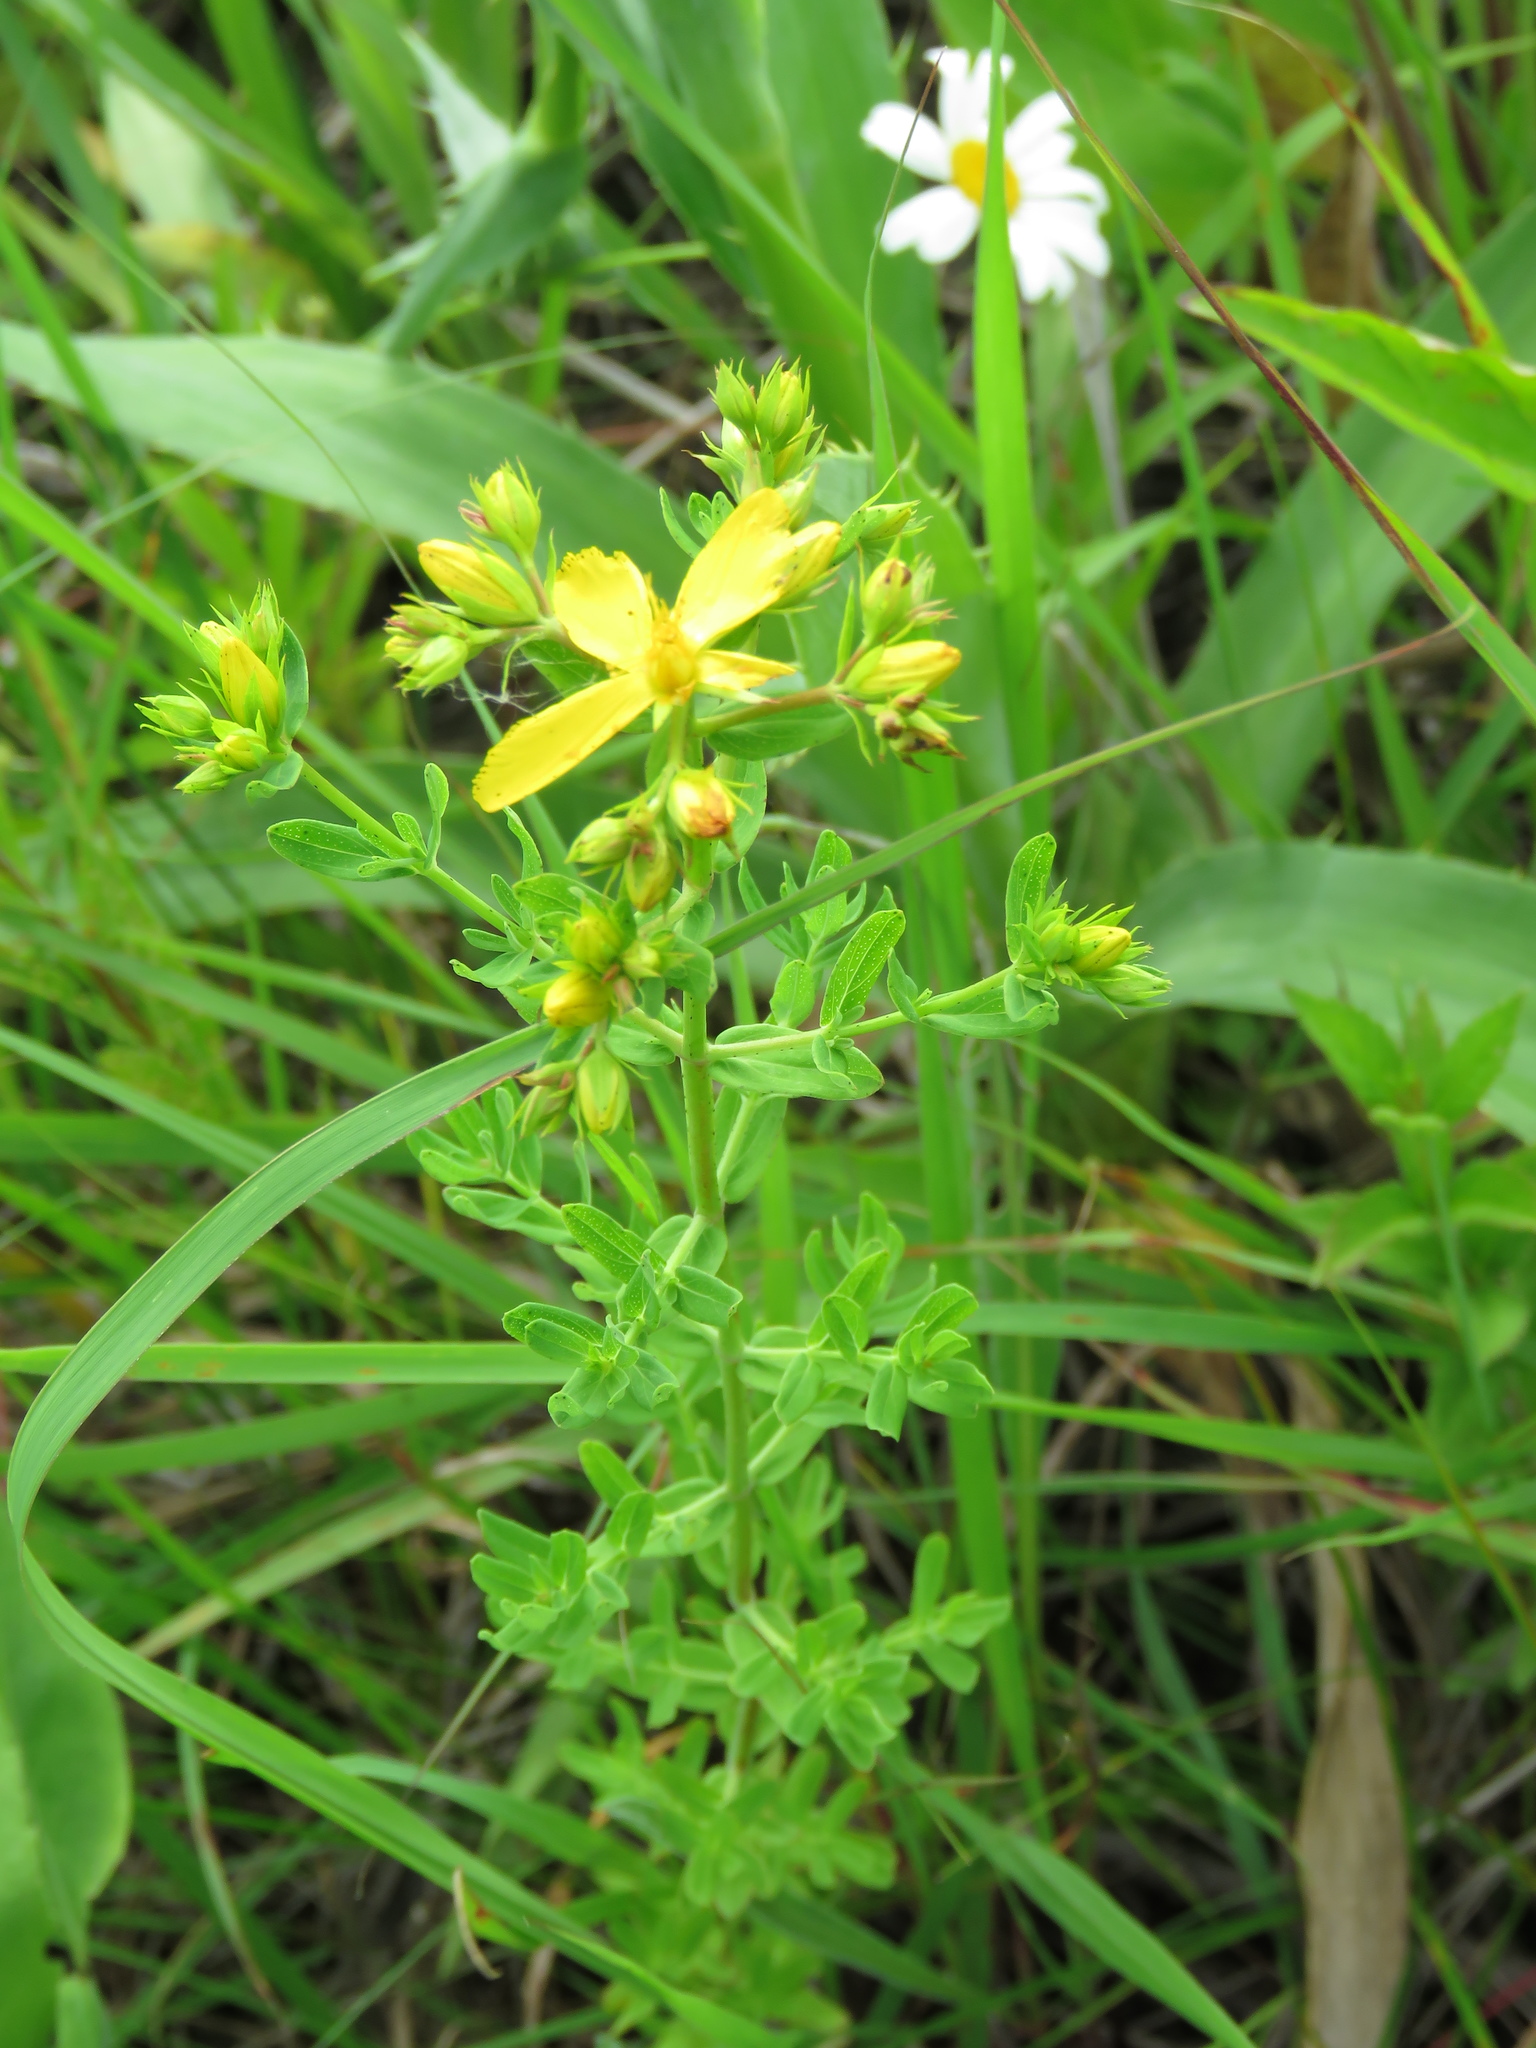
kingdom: Plantae
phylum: Tracheophyta
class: Magnoliopsida
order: Malpighiales
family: Hypericaceae
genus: Hypericum
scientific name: Hypericum perforatum
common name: Common st. johnswort
